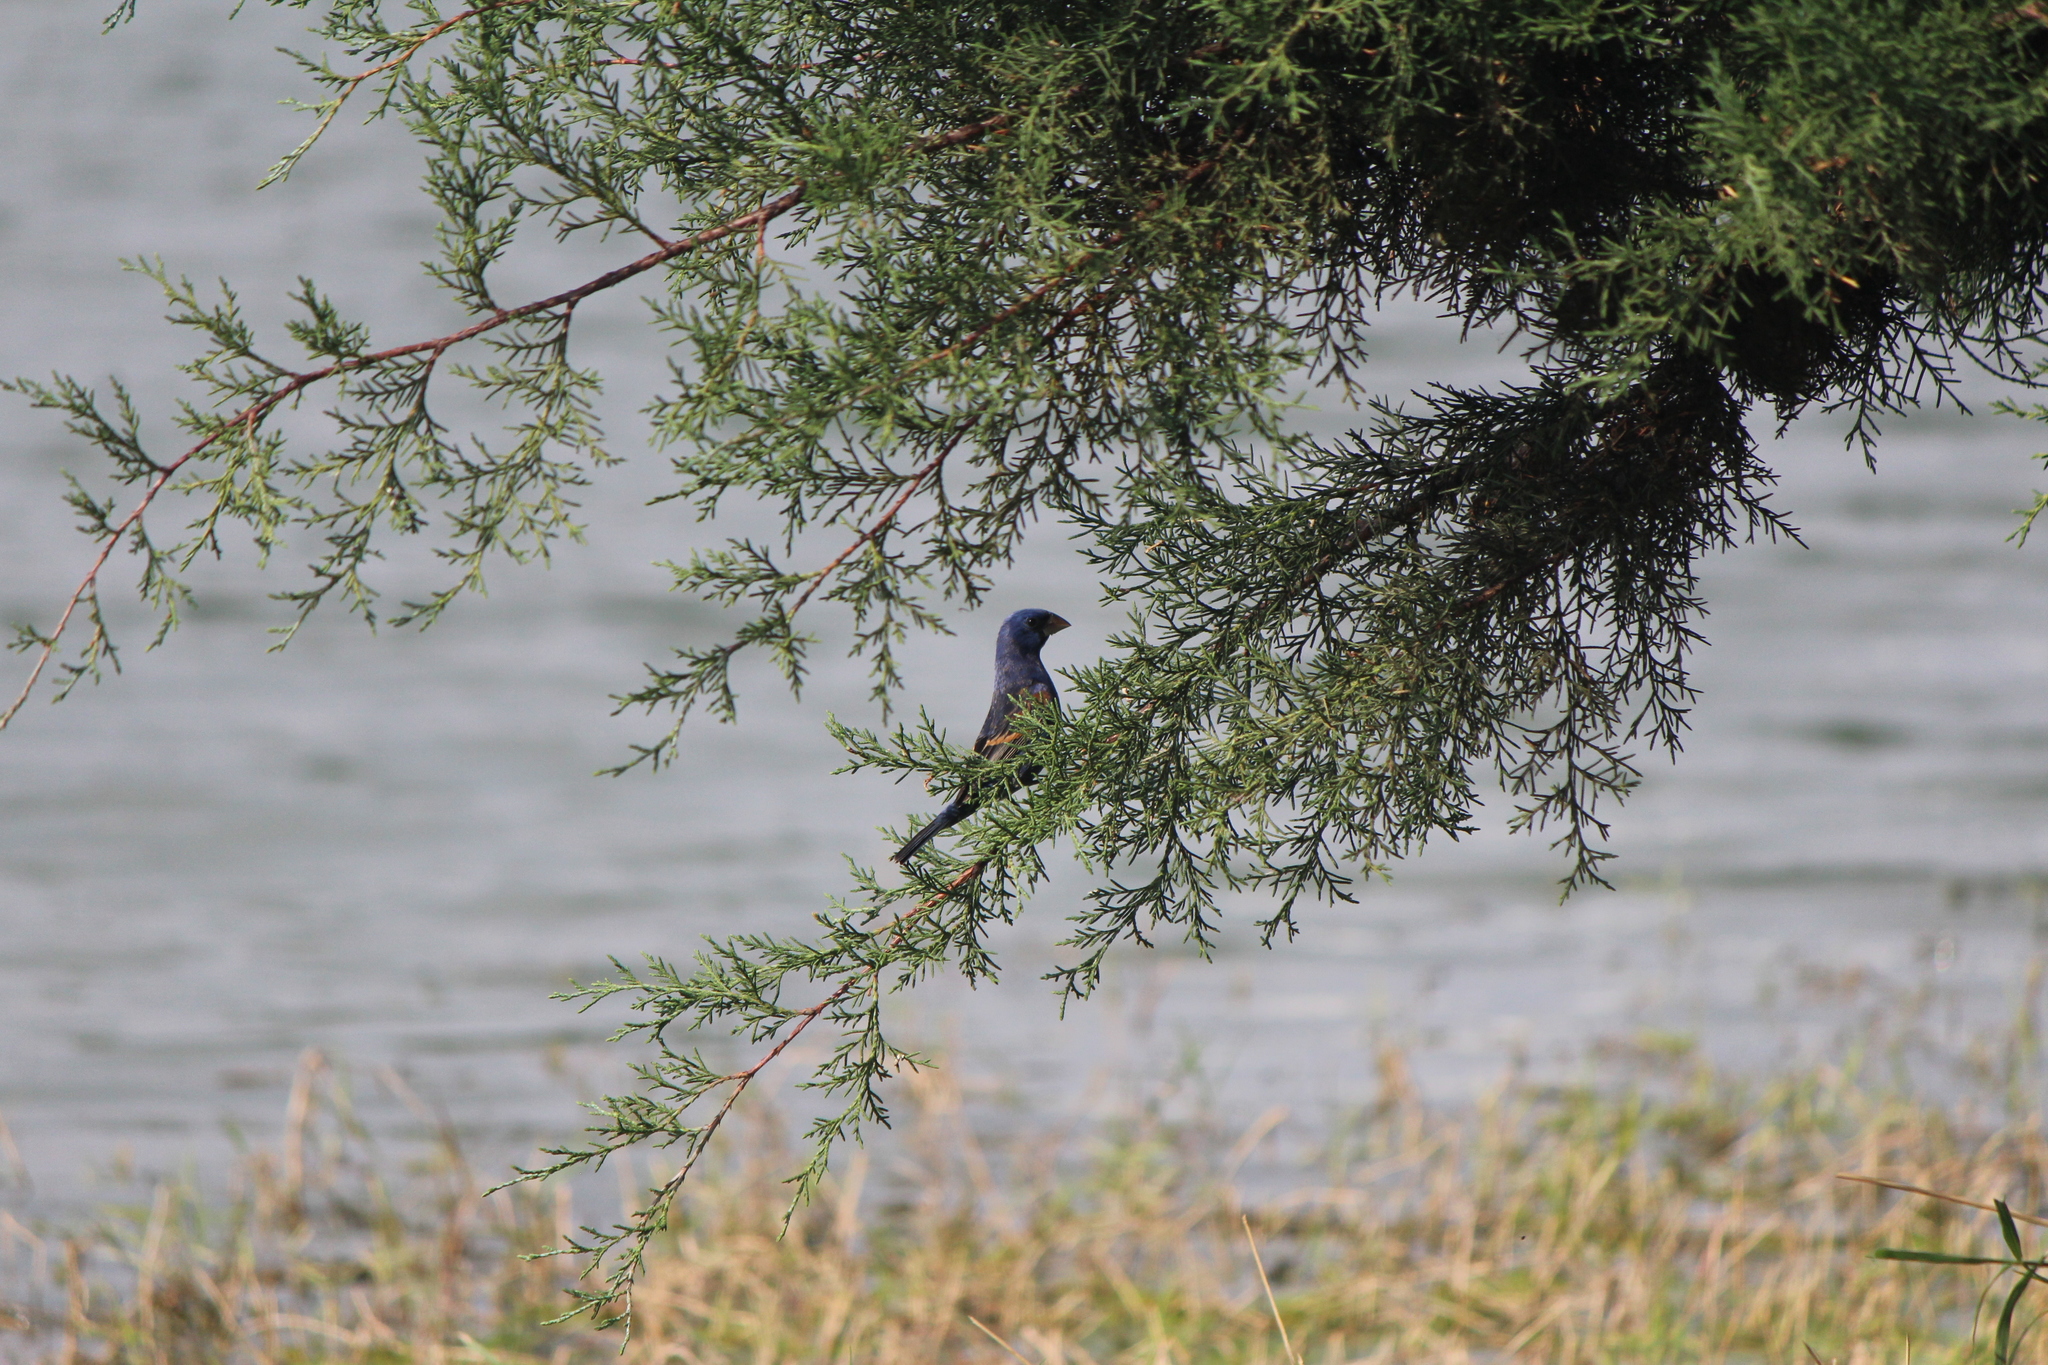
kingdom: Animalia
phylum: Chordata
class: Aves
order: Passeriformes
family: Cardinalidae
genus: Passerina
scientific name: Passerina caerulea
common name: Blue grosbeak
